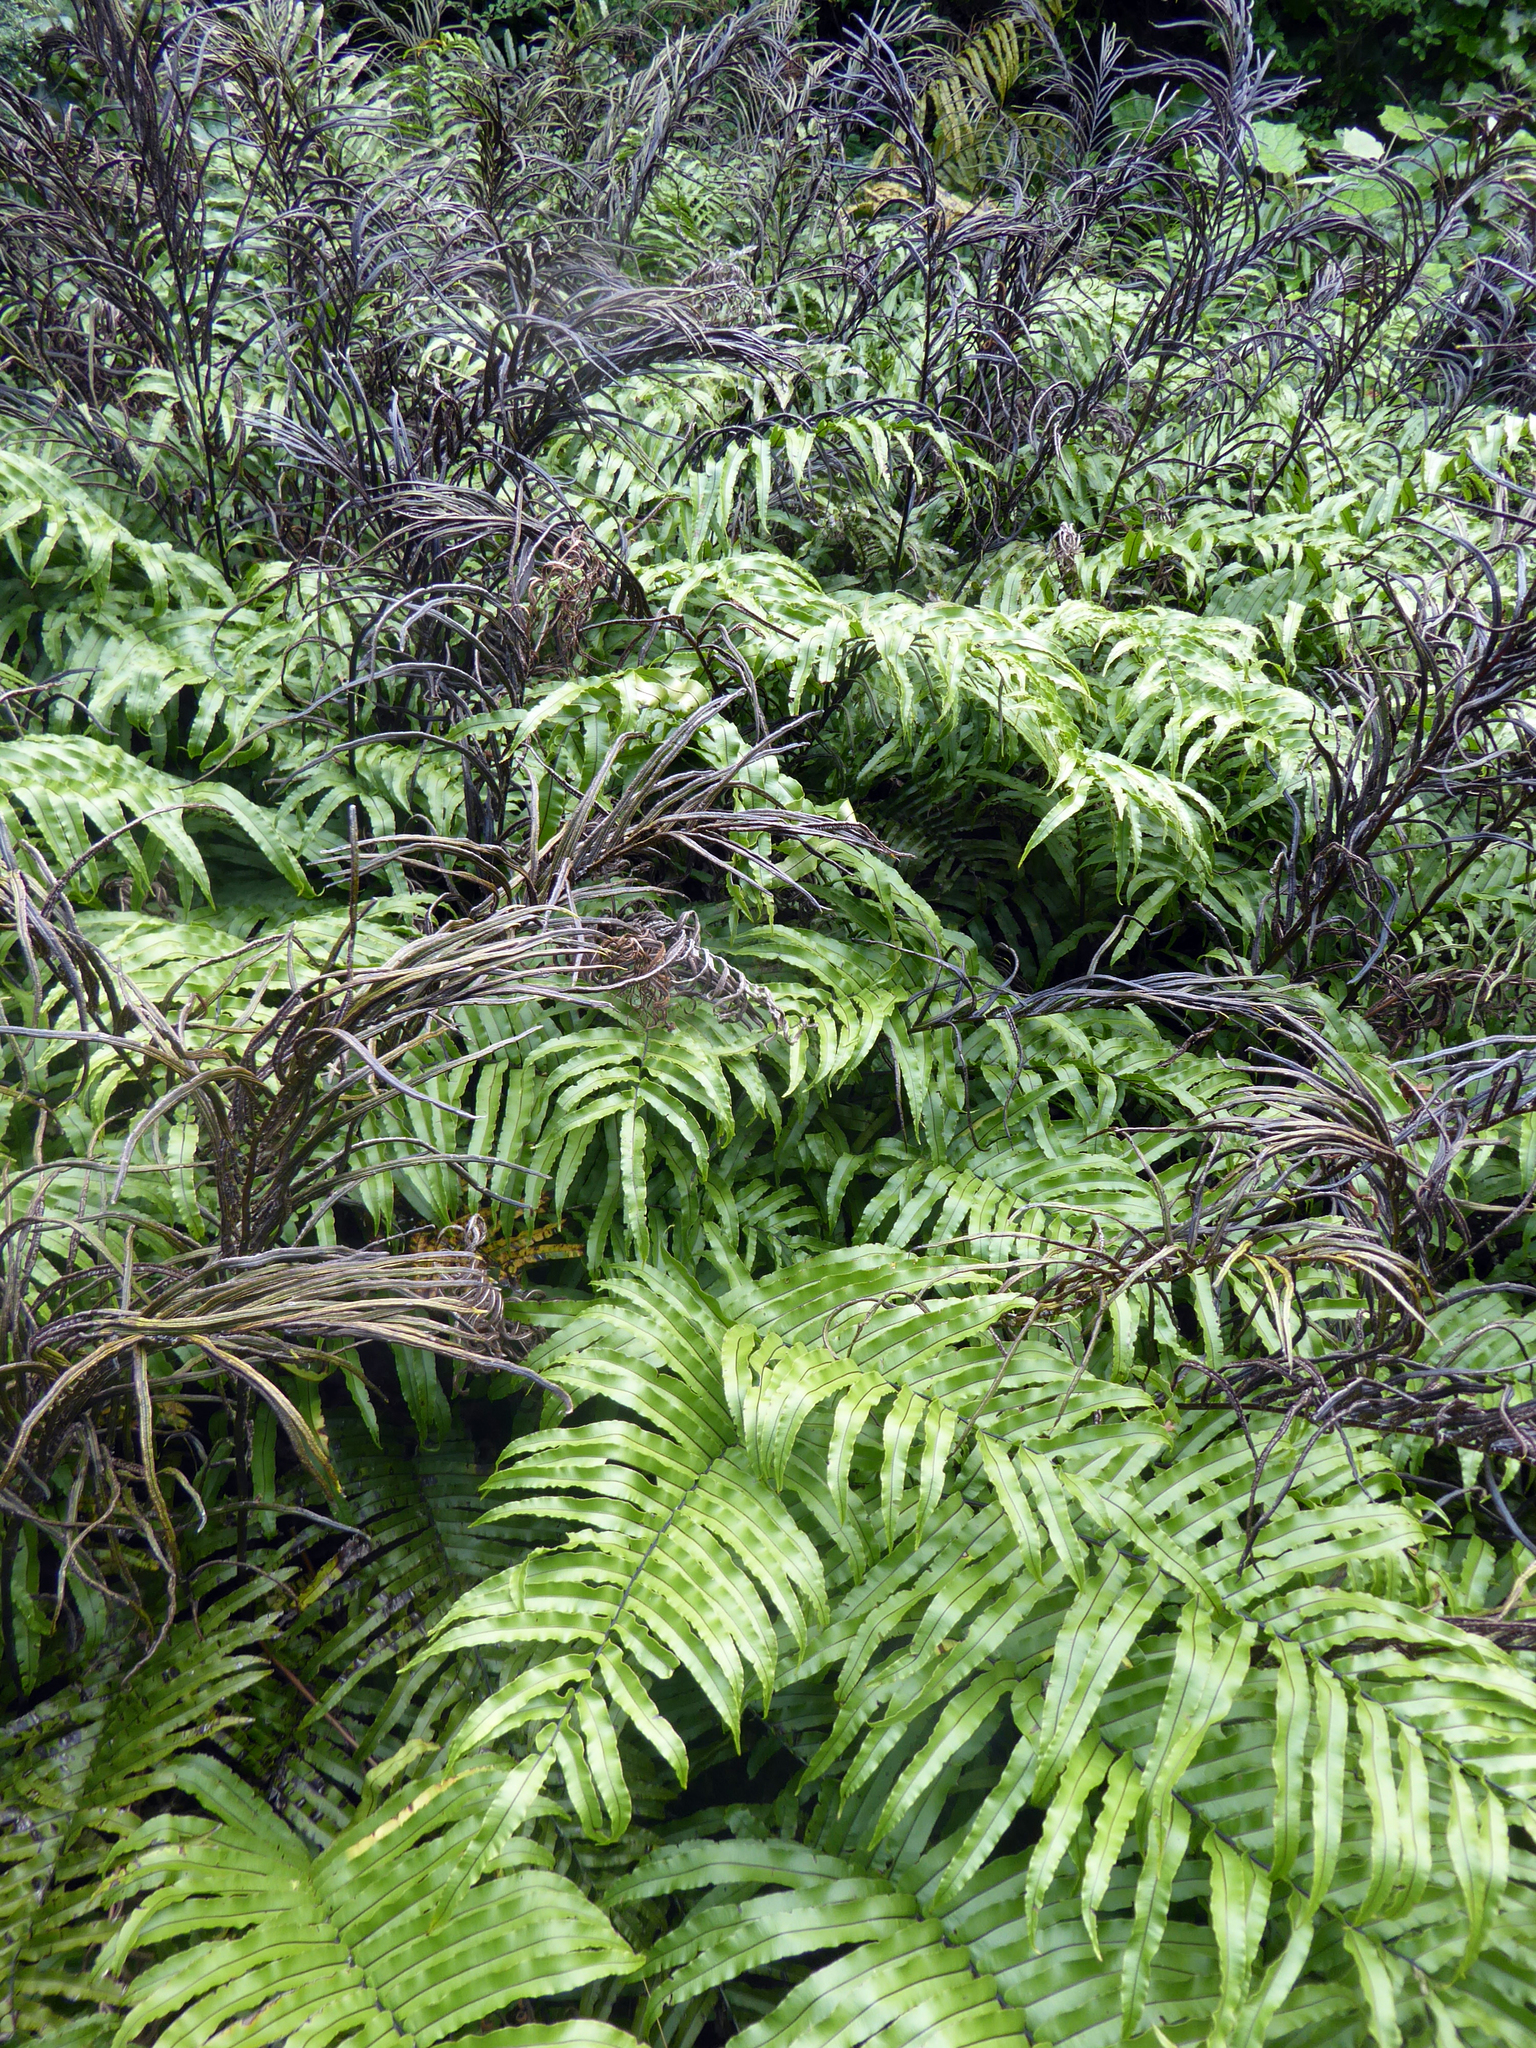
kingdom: Plantae
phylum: Tracheophyta
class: Polypodiopsida
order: Polypodiales
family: Blechnaceae
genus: Parablechnum
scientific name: Parablechnum novae-zelandiae
